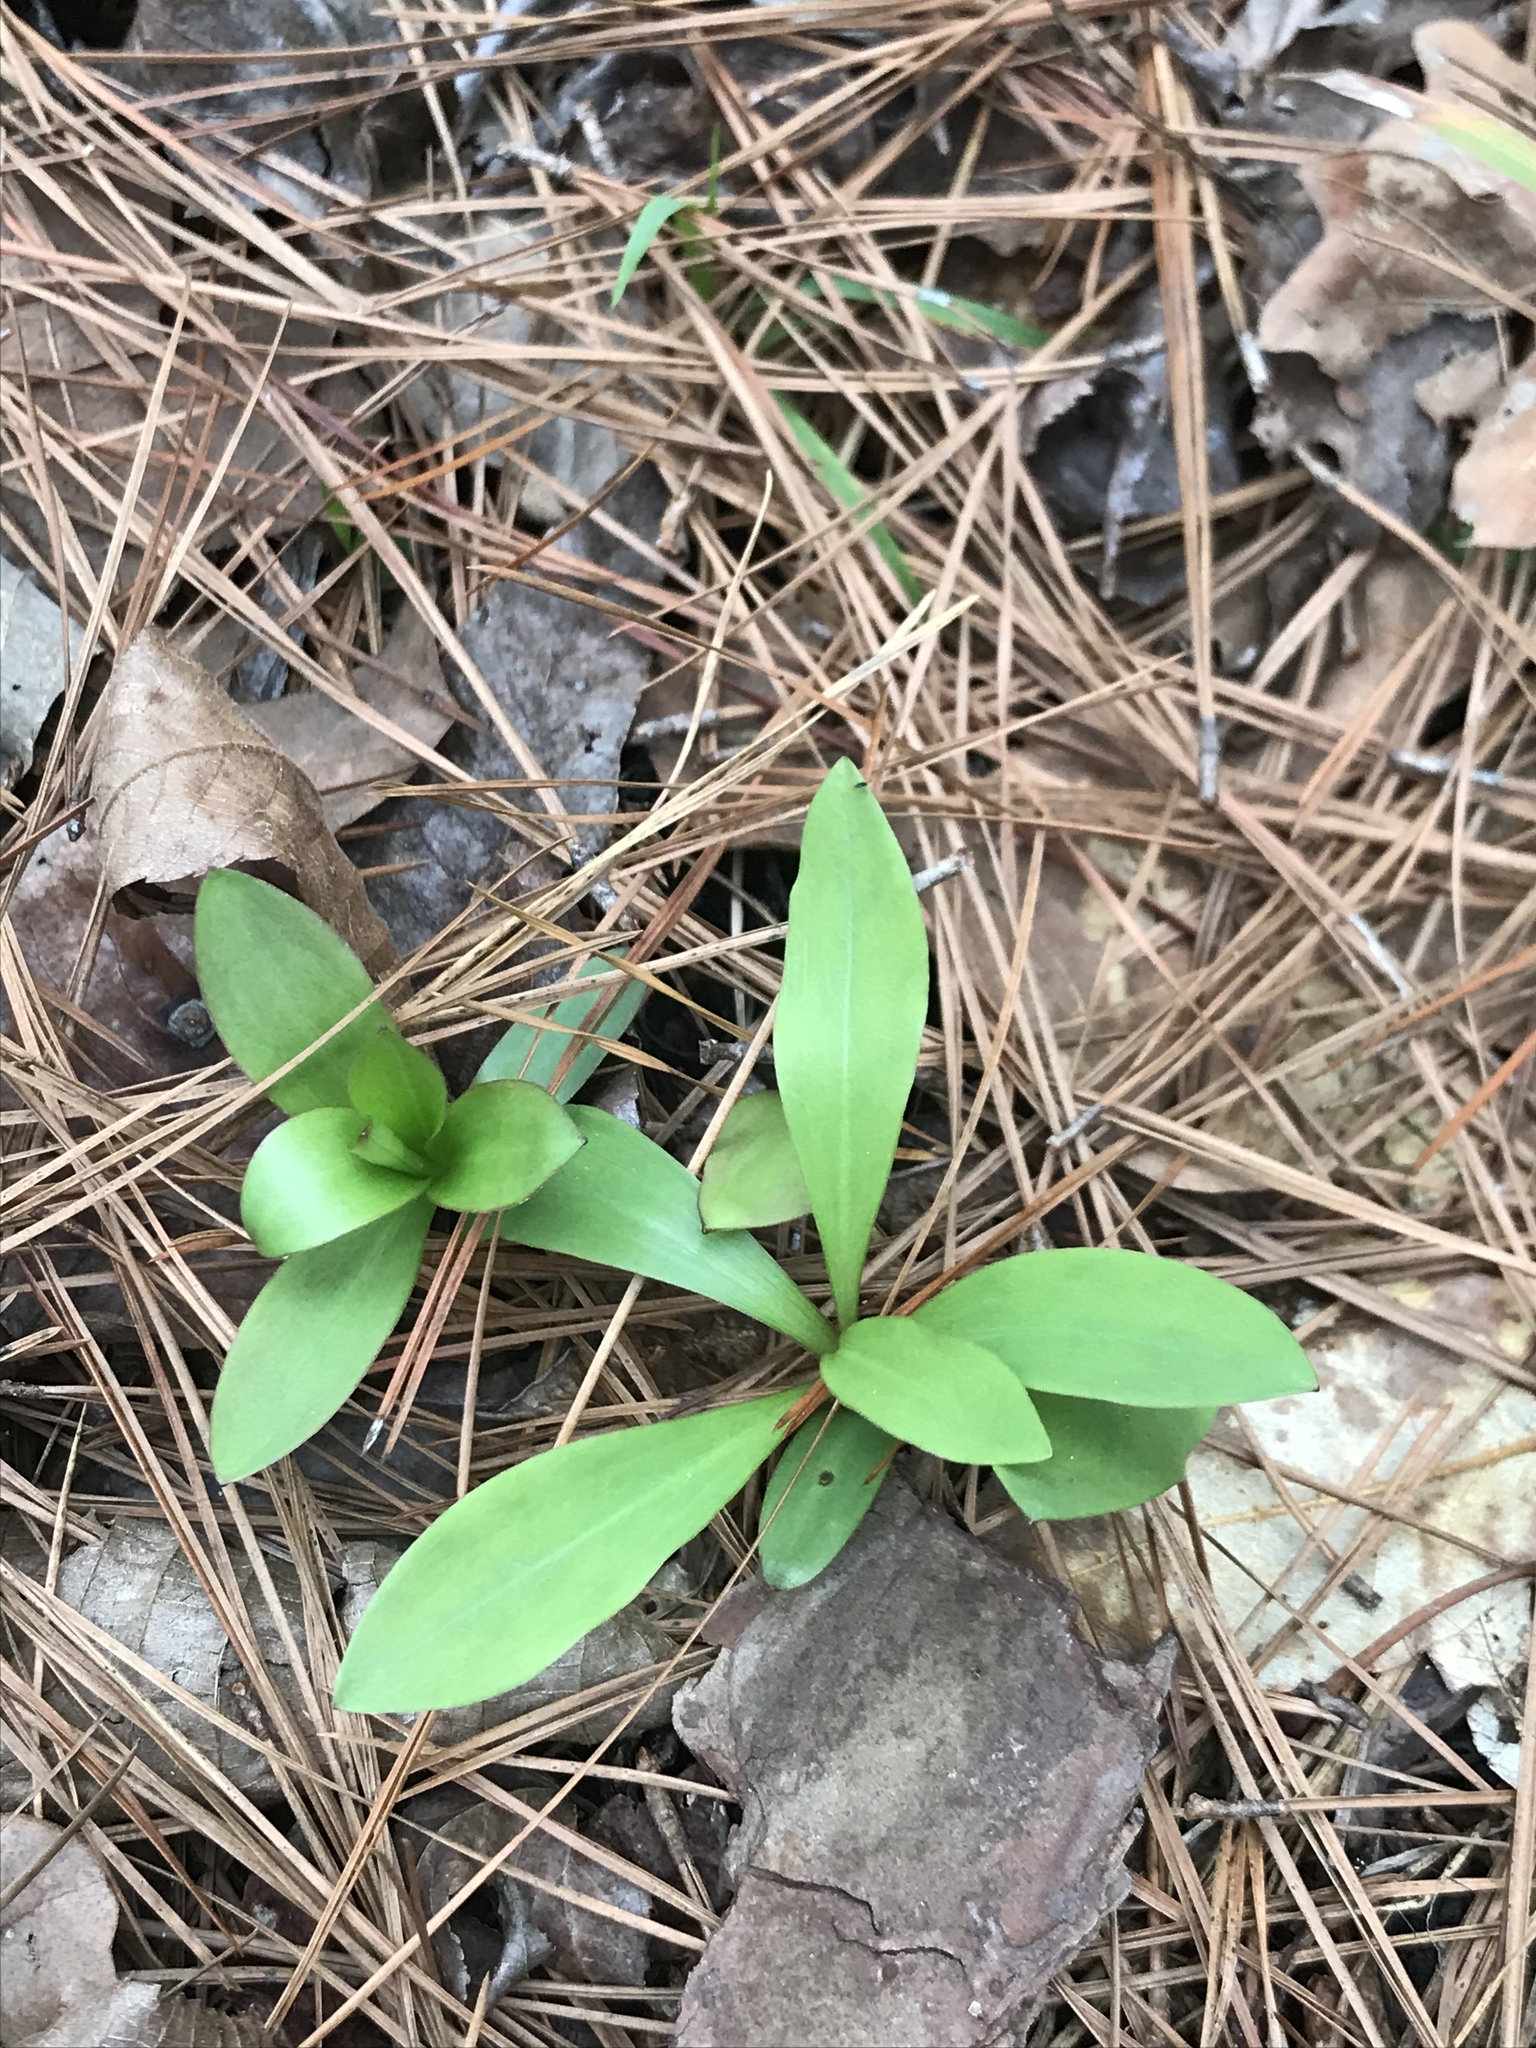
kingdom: Plantae
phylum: Tracheophyta
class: Liliopsida
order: Liliales
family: Liliaceae
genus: Lilium
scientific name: Lilium michauxii
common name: Carolina lily
